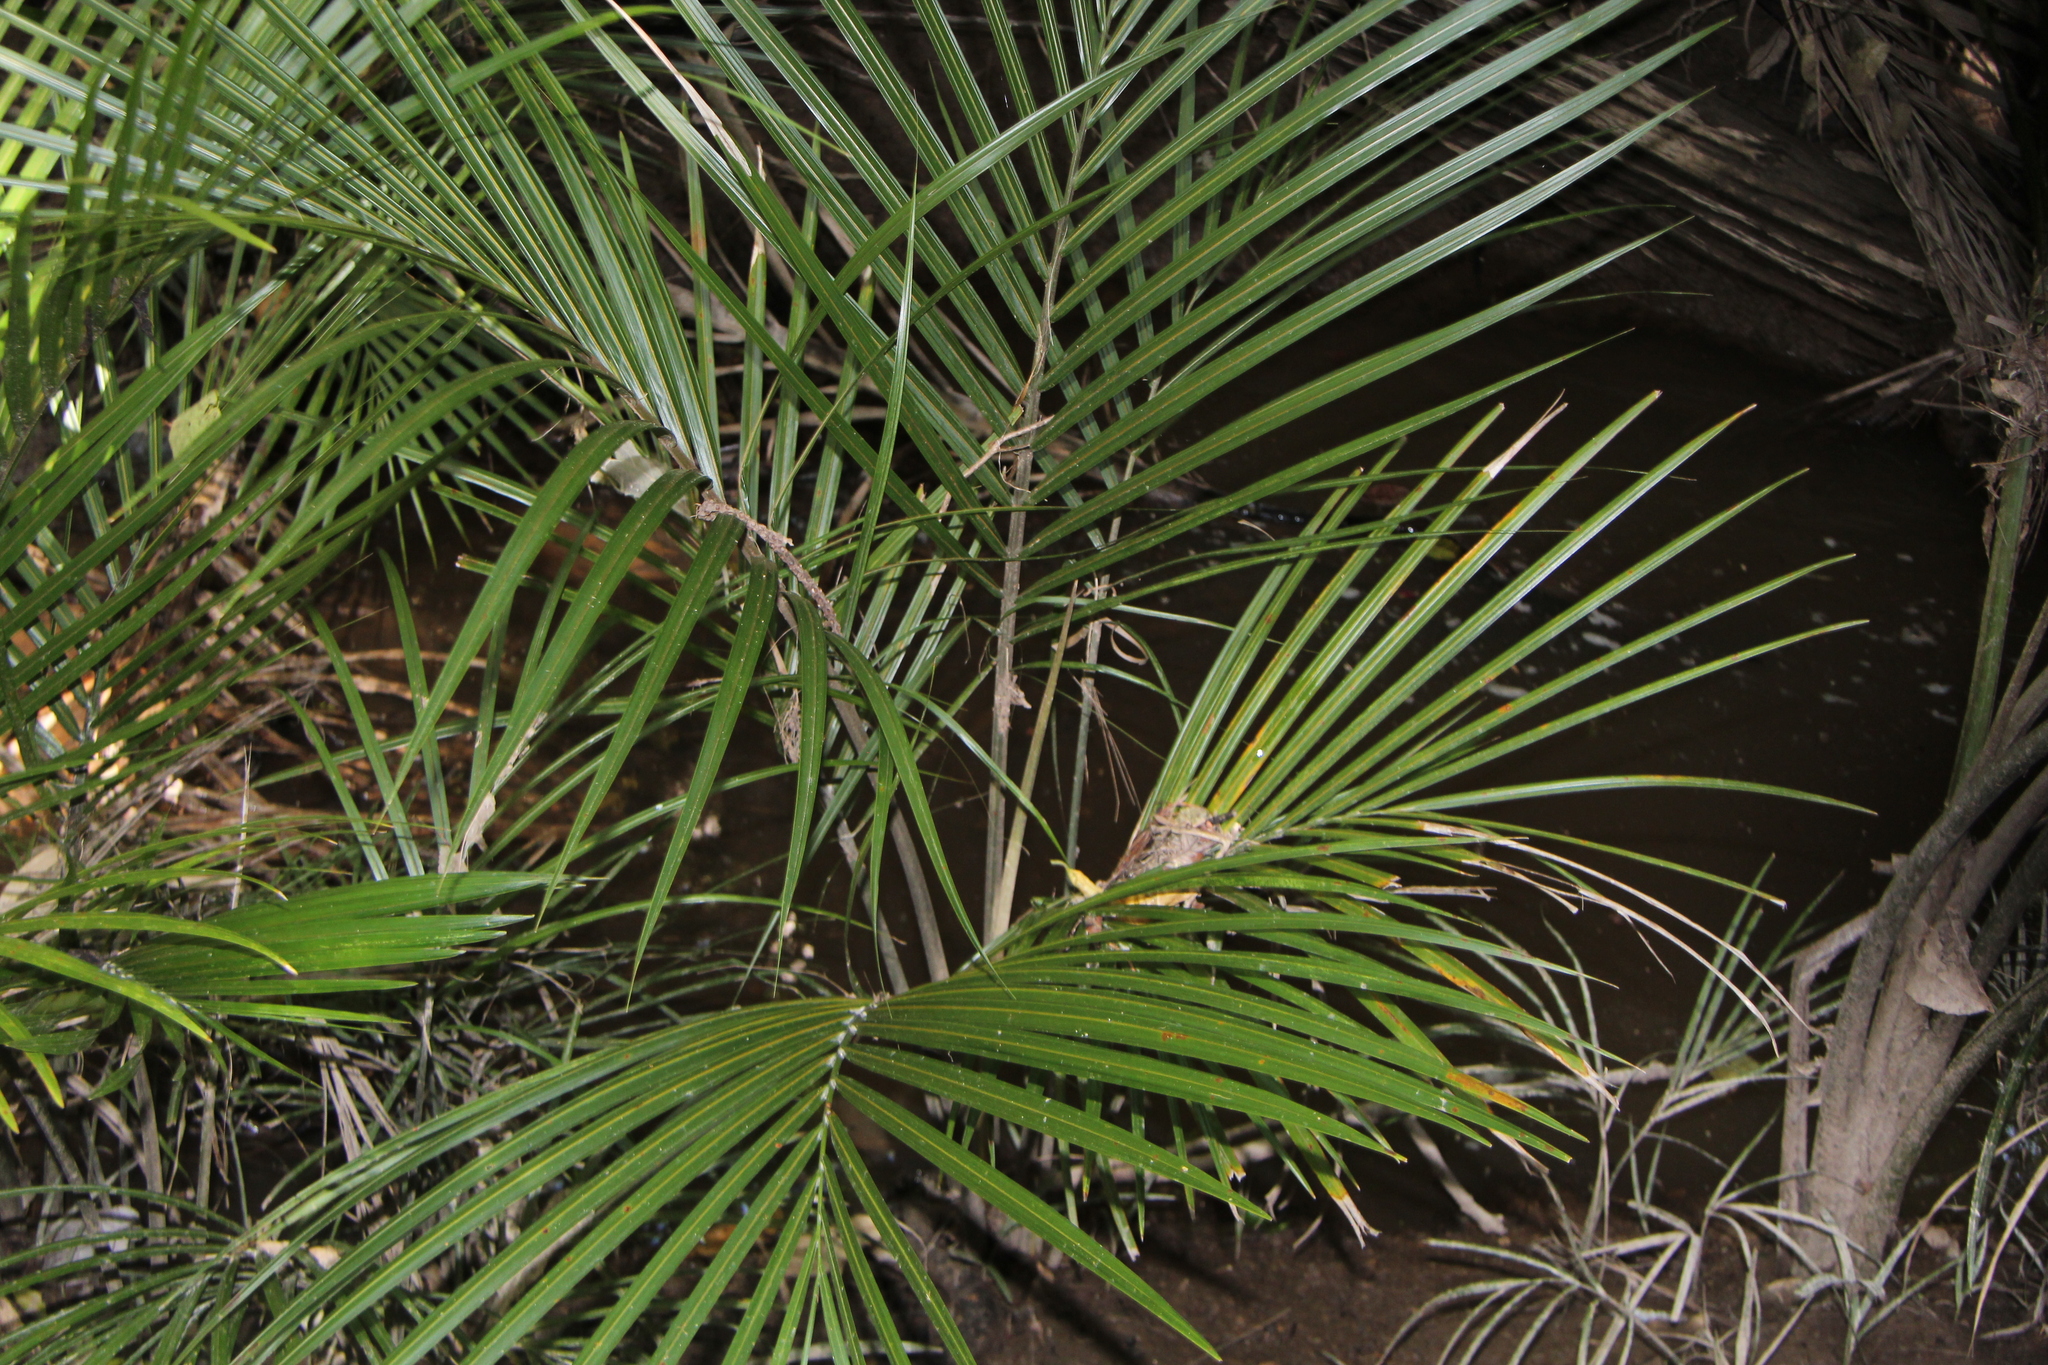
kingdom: Plantae
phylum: Tracheophyta
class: Liliopsida
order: Arecales
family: Arecaceae
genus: Rhopalostylis
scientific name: Rhopalostylis sapida
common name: Feather-duster palm
